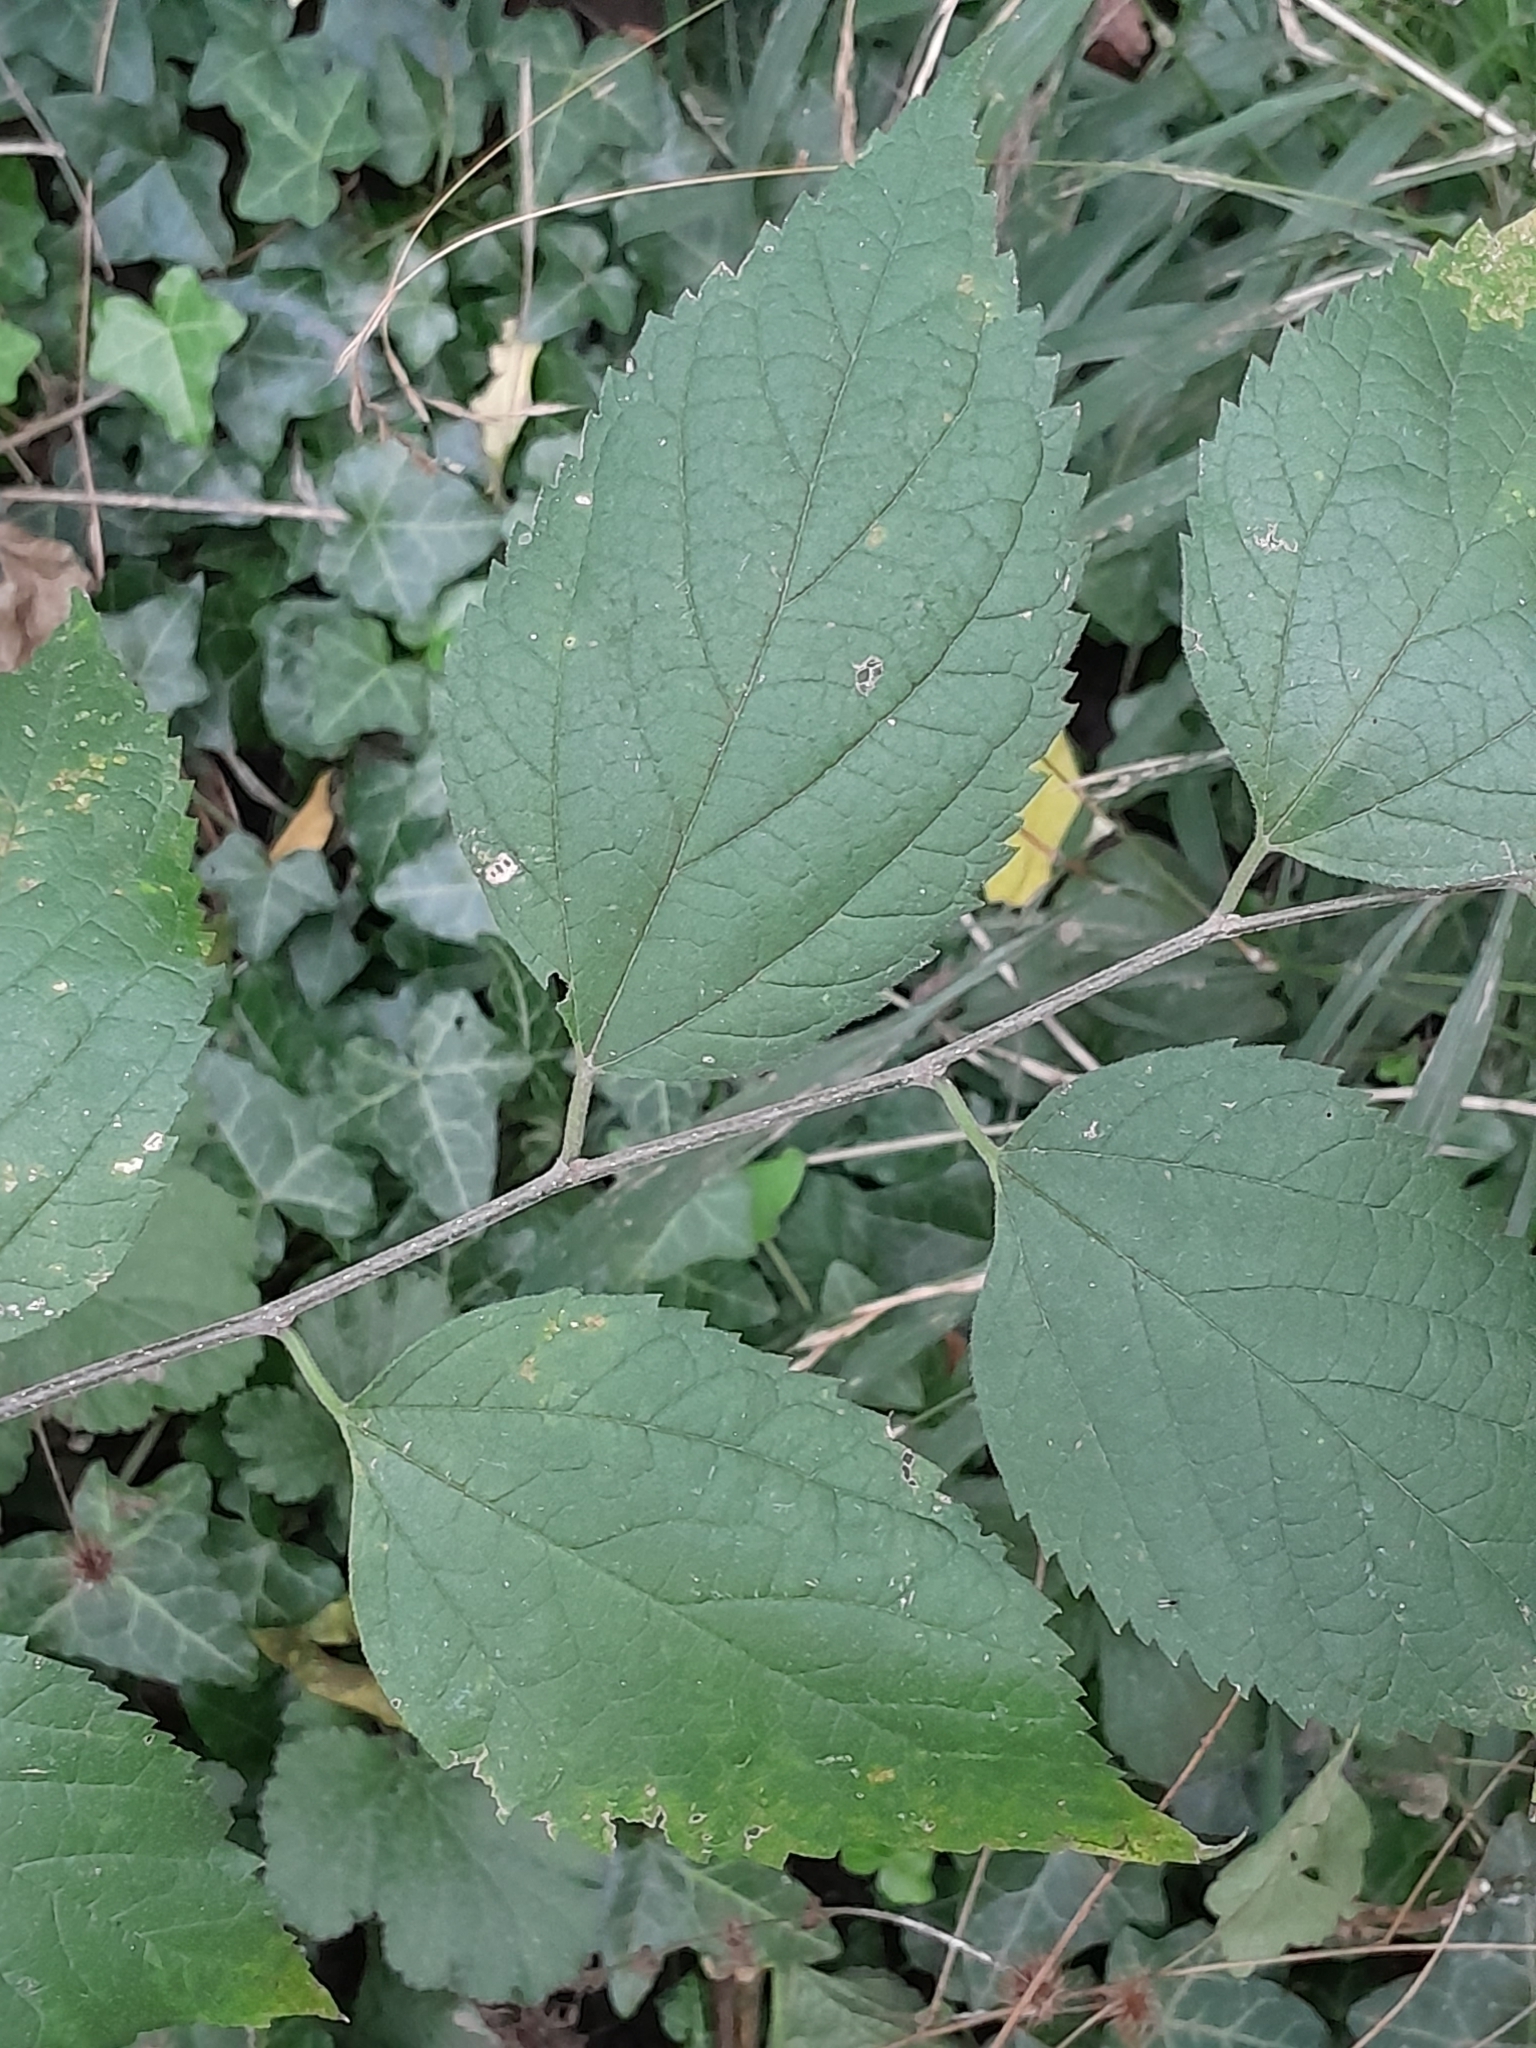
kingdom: Plantae
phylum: Tracheophyta
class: Magnoliopsida
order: Rosales
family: Cannabaceae
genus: Celtis
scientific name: Celtis occidentalis
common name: Common hackberry
